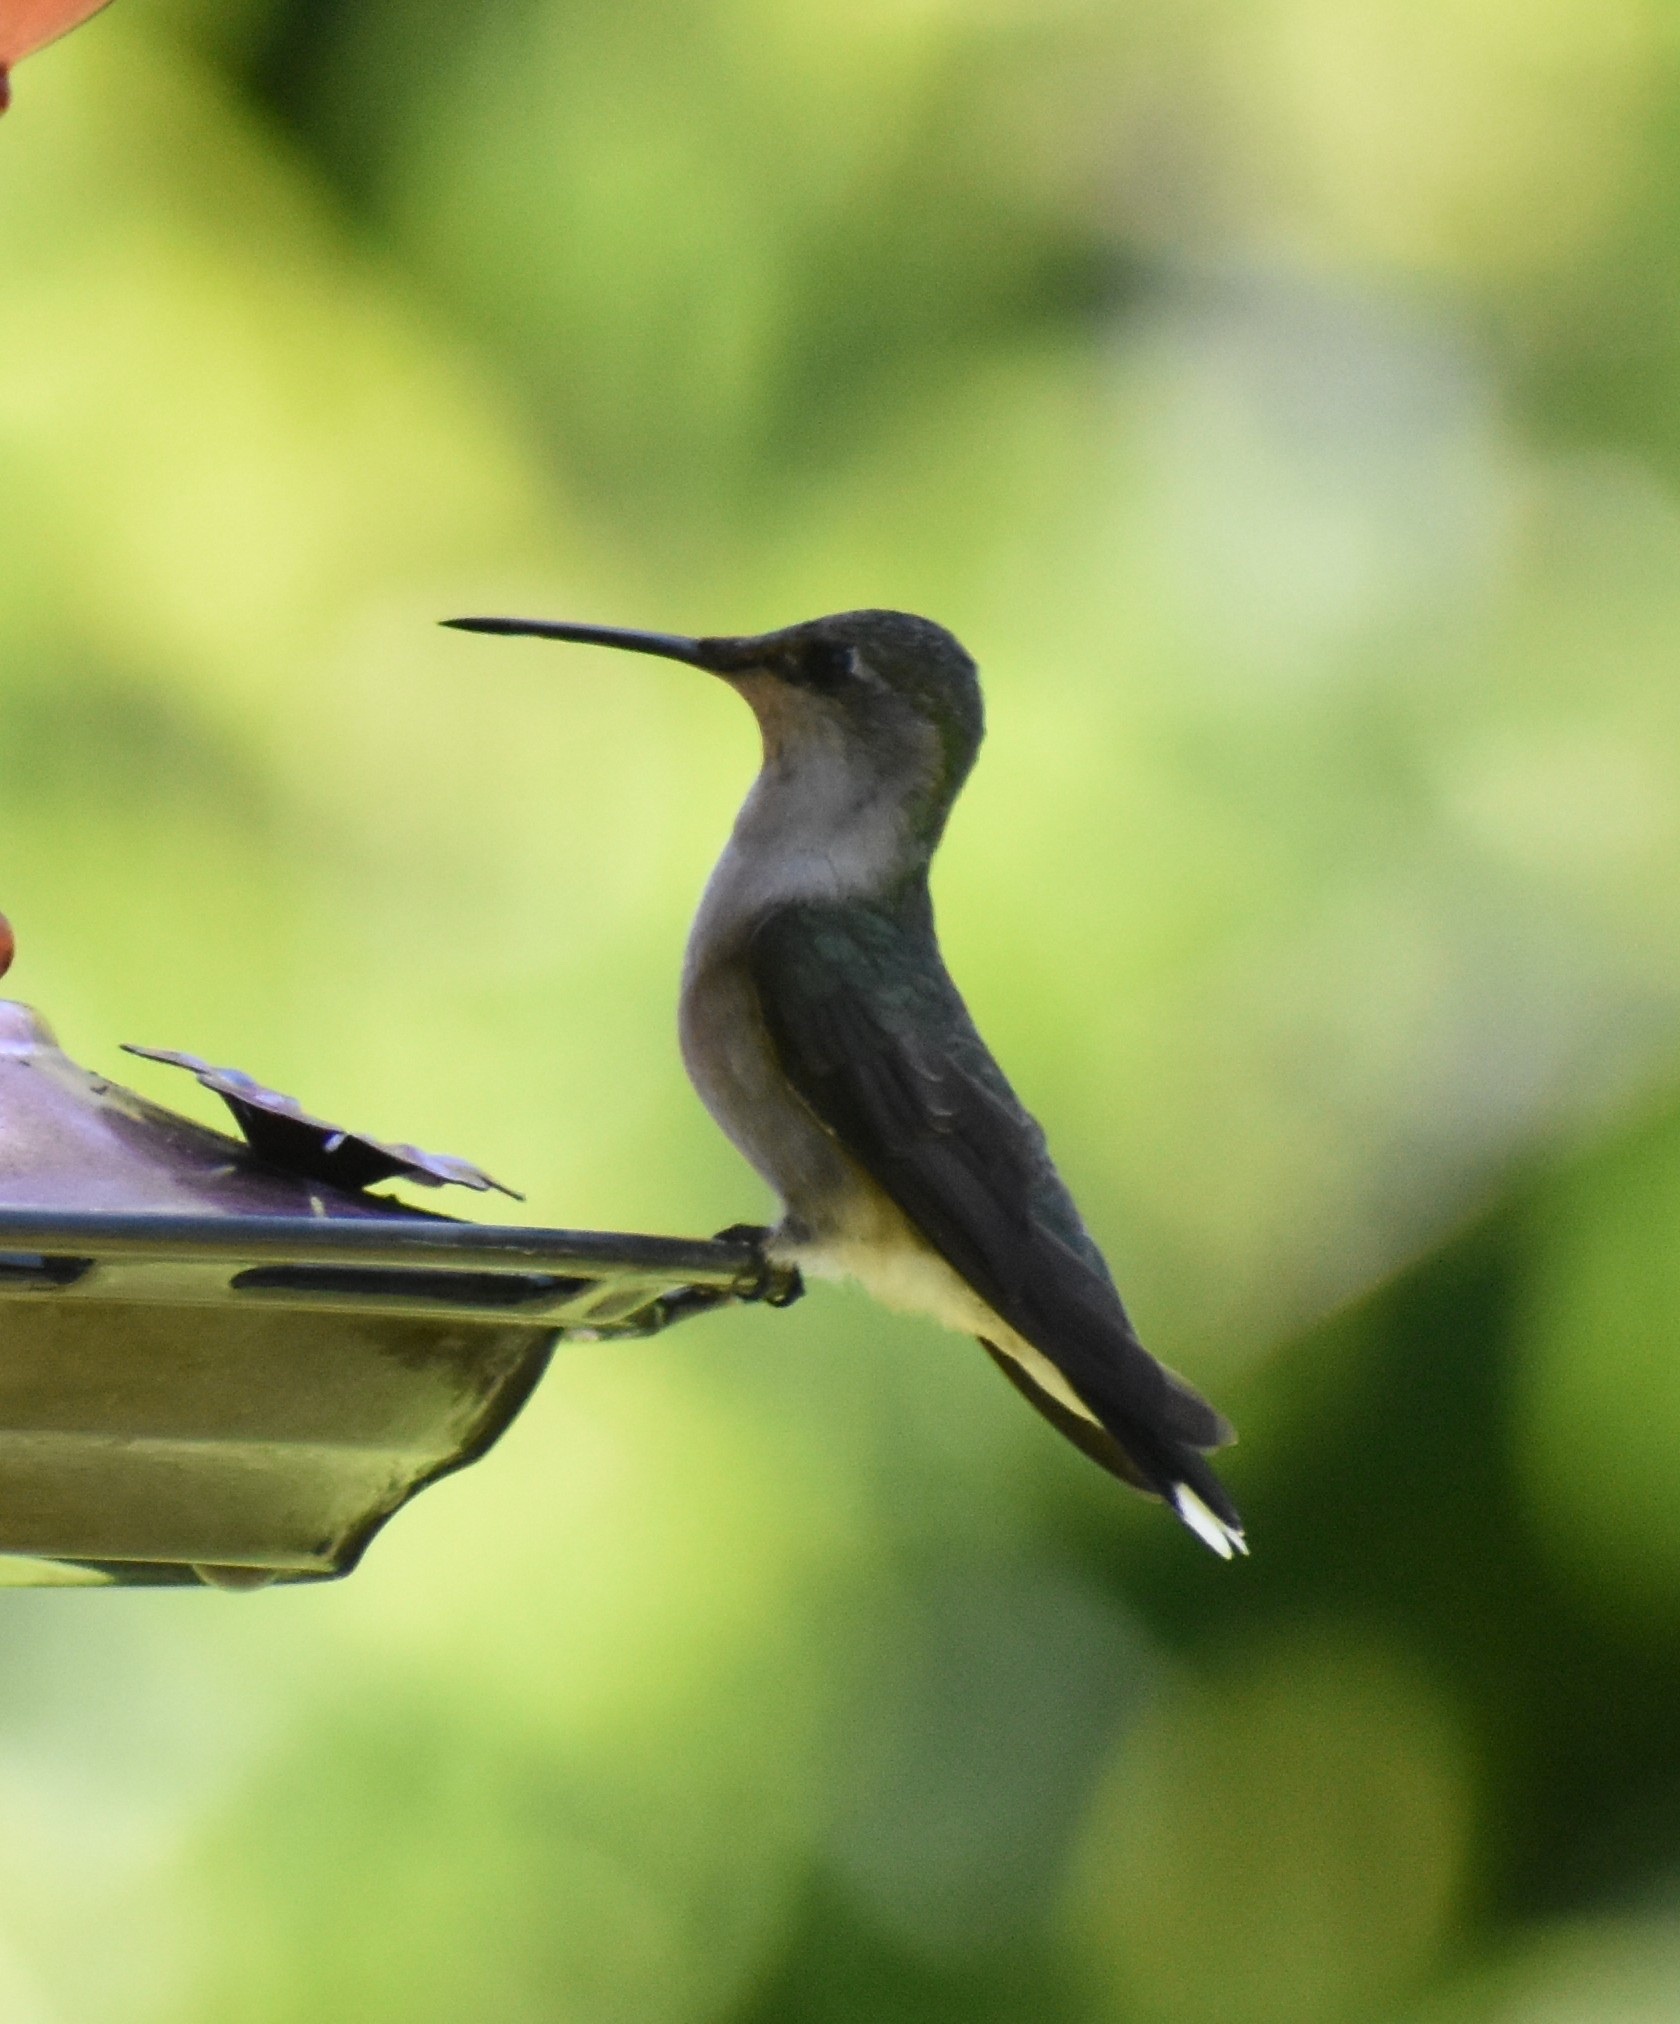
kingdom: Animalia
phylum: Chordata
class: Aves
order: Apodiformes
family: Trochilidae
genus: Archilochus
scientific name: Archilochus colubris
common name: Ruby-throated hummingbird
